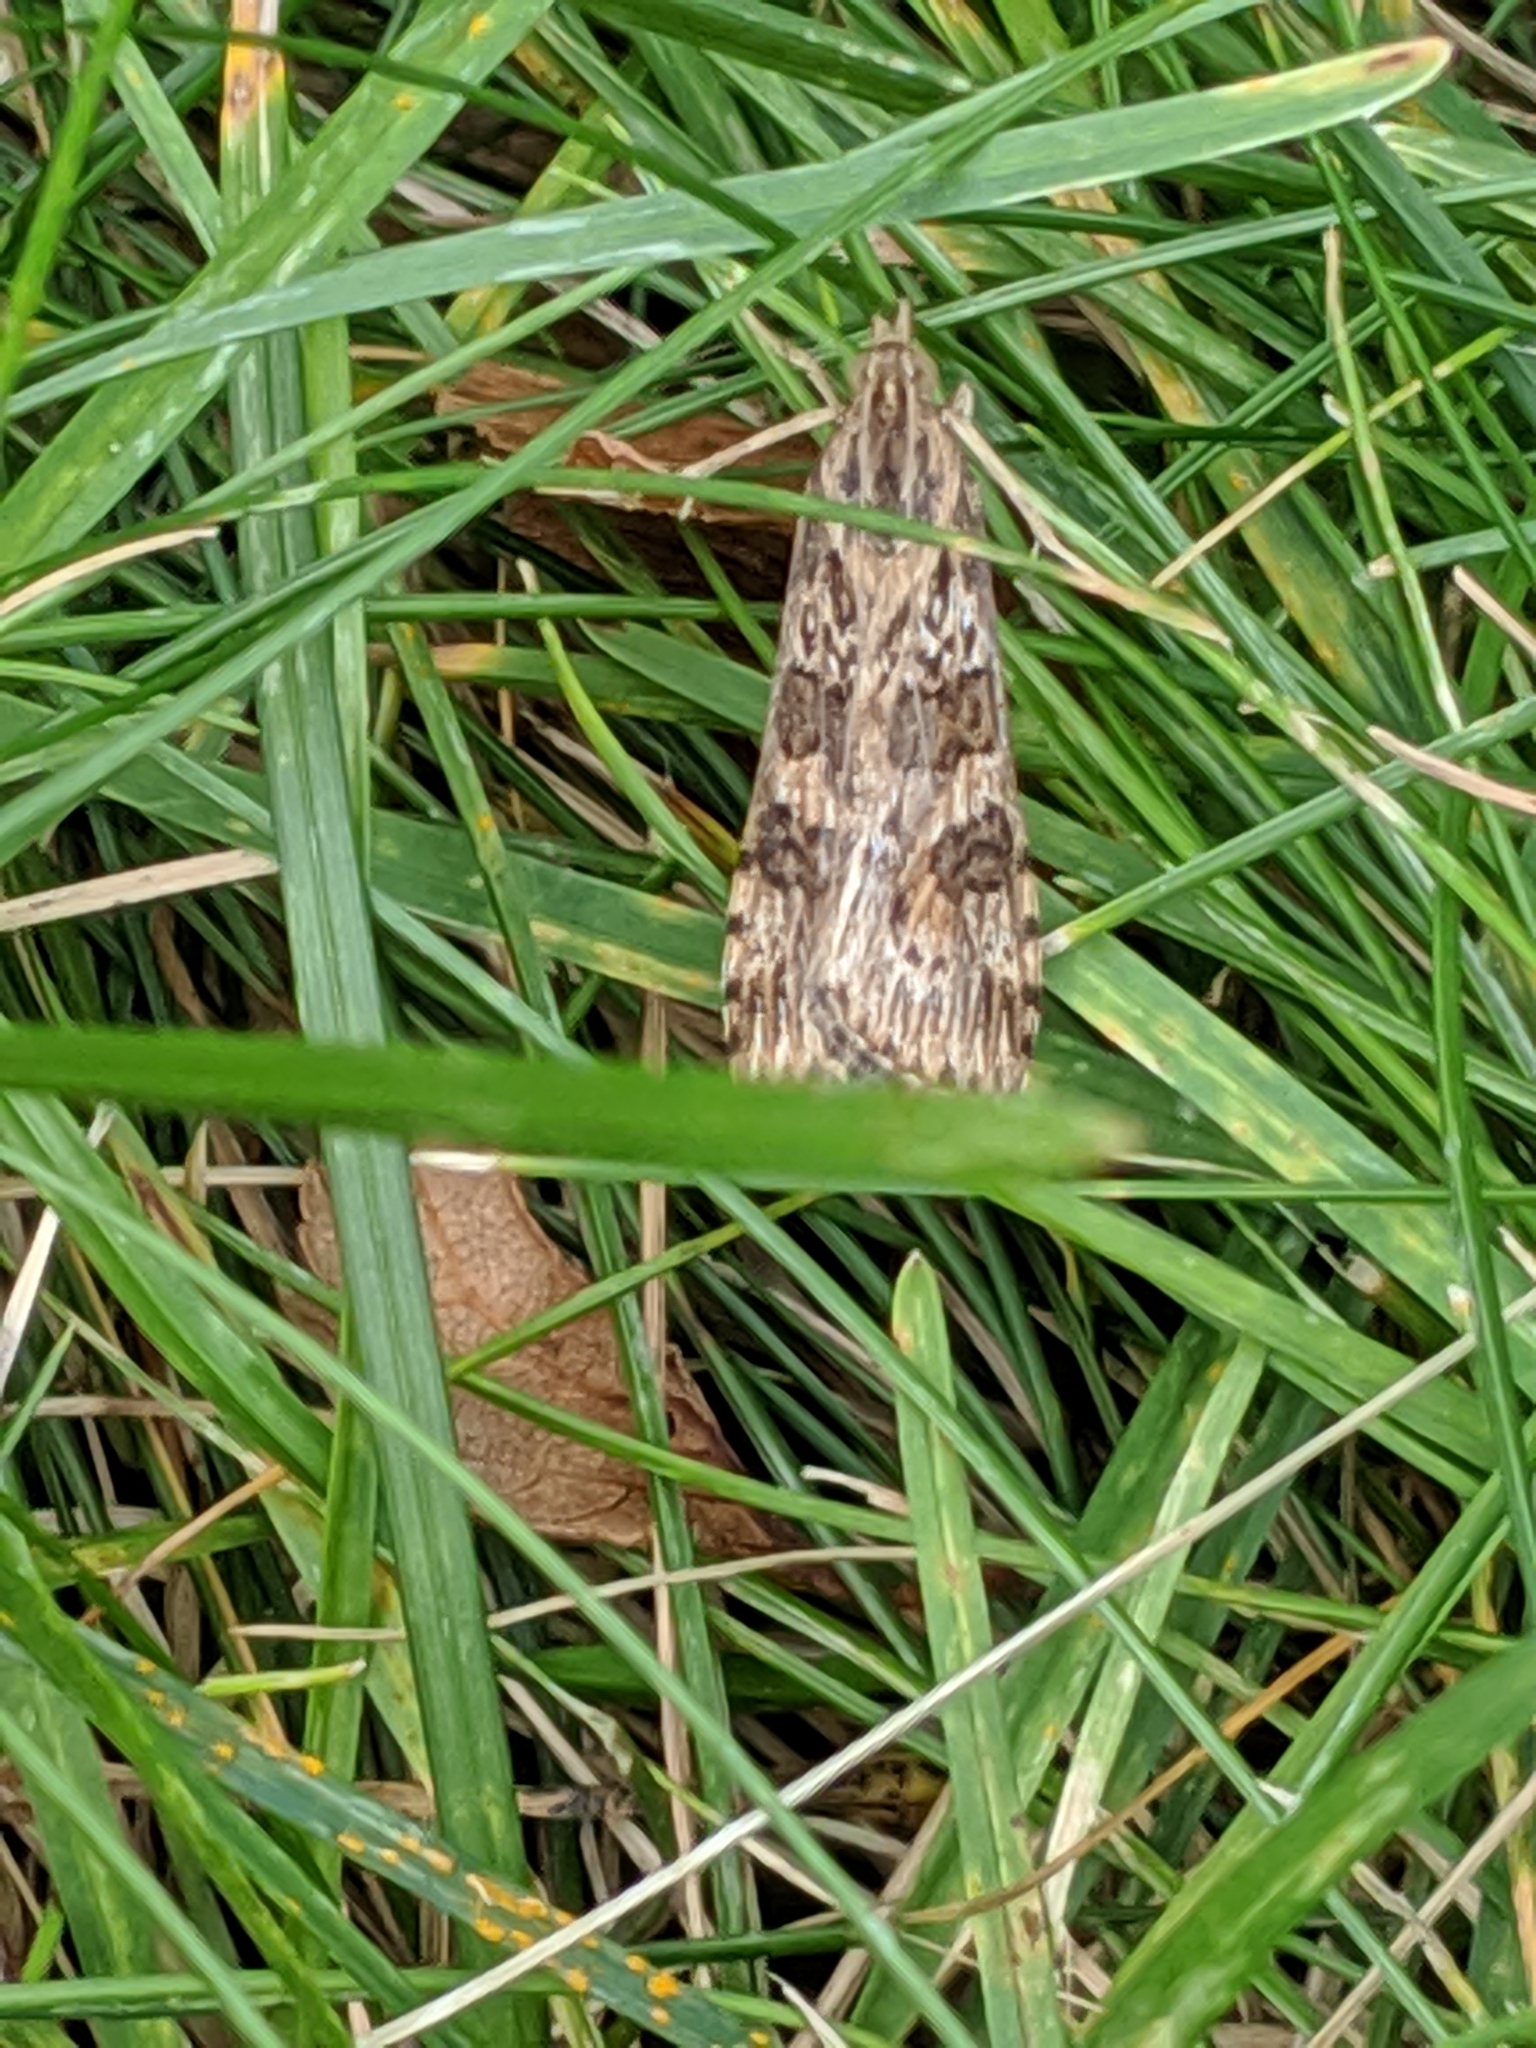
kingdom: Animalia
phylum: Arthropoda
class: Insecta
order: Lepidoptera
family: Crambidae
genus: Nomophila
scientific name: Nomophila nearctica
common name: American rush veneer
